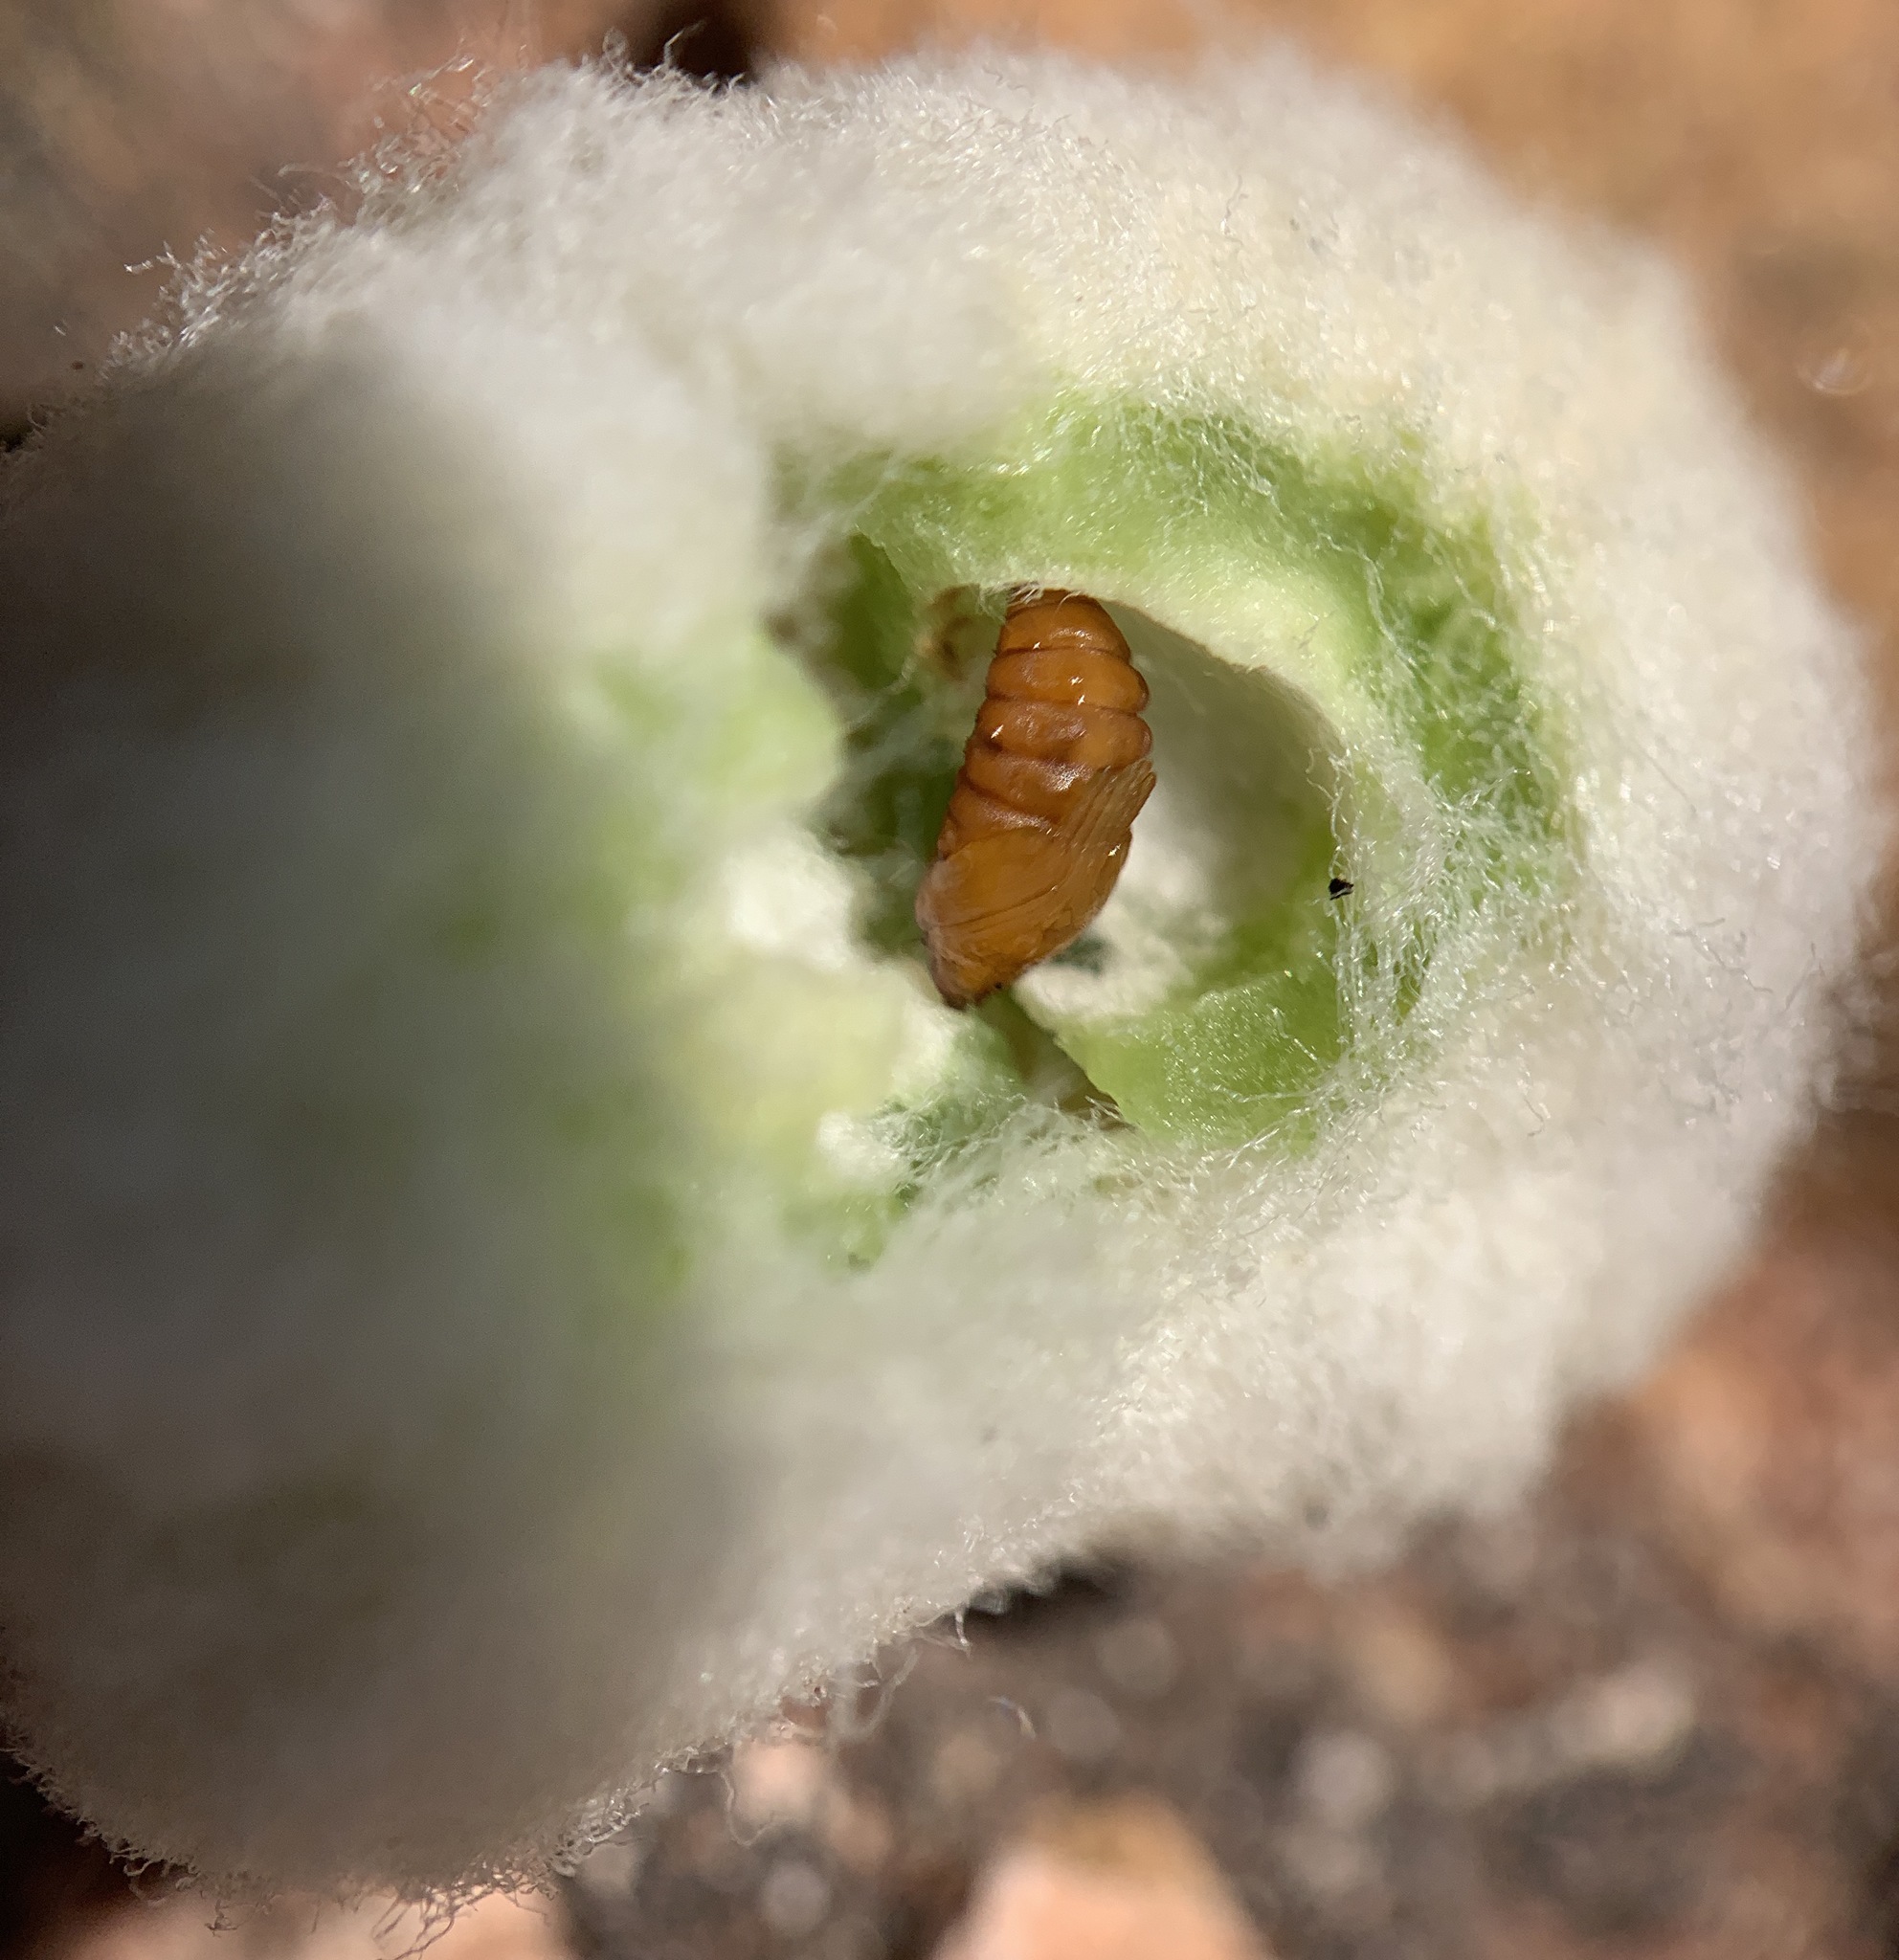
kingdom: Animalia
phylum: Arthropoda
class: Insecta
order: Diptera
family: Cecidomyiidae
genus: Asphondylia
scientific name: Asphondylia neomexicana
